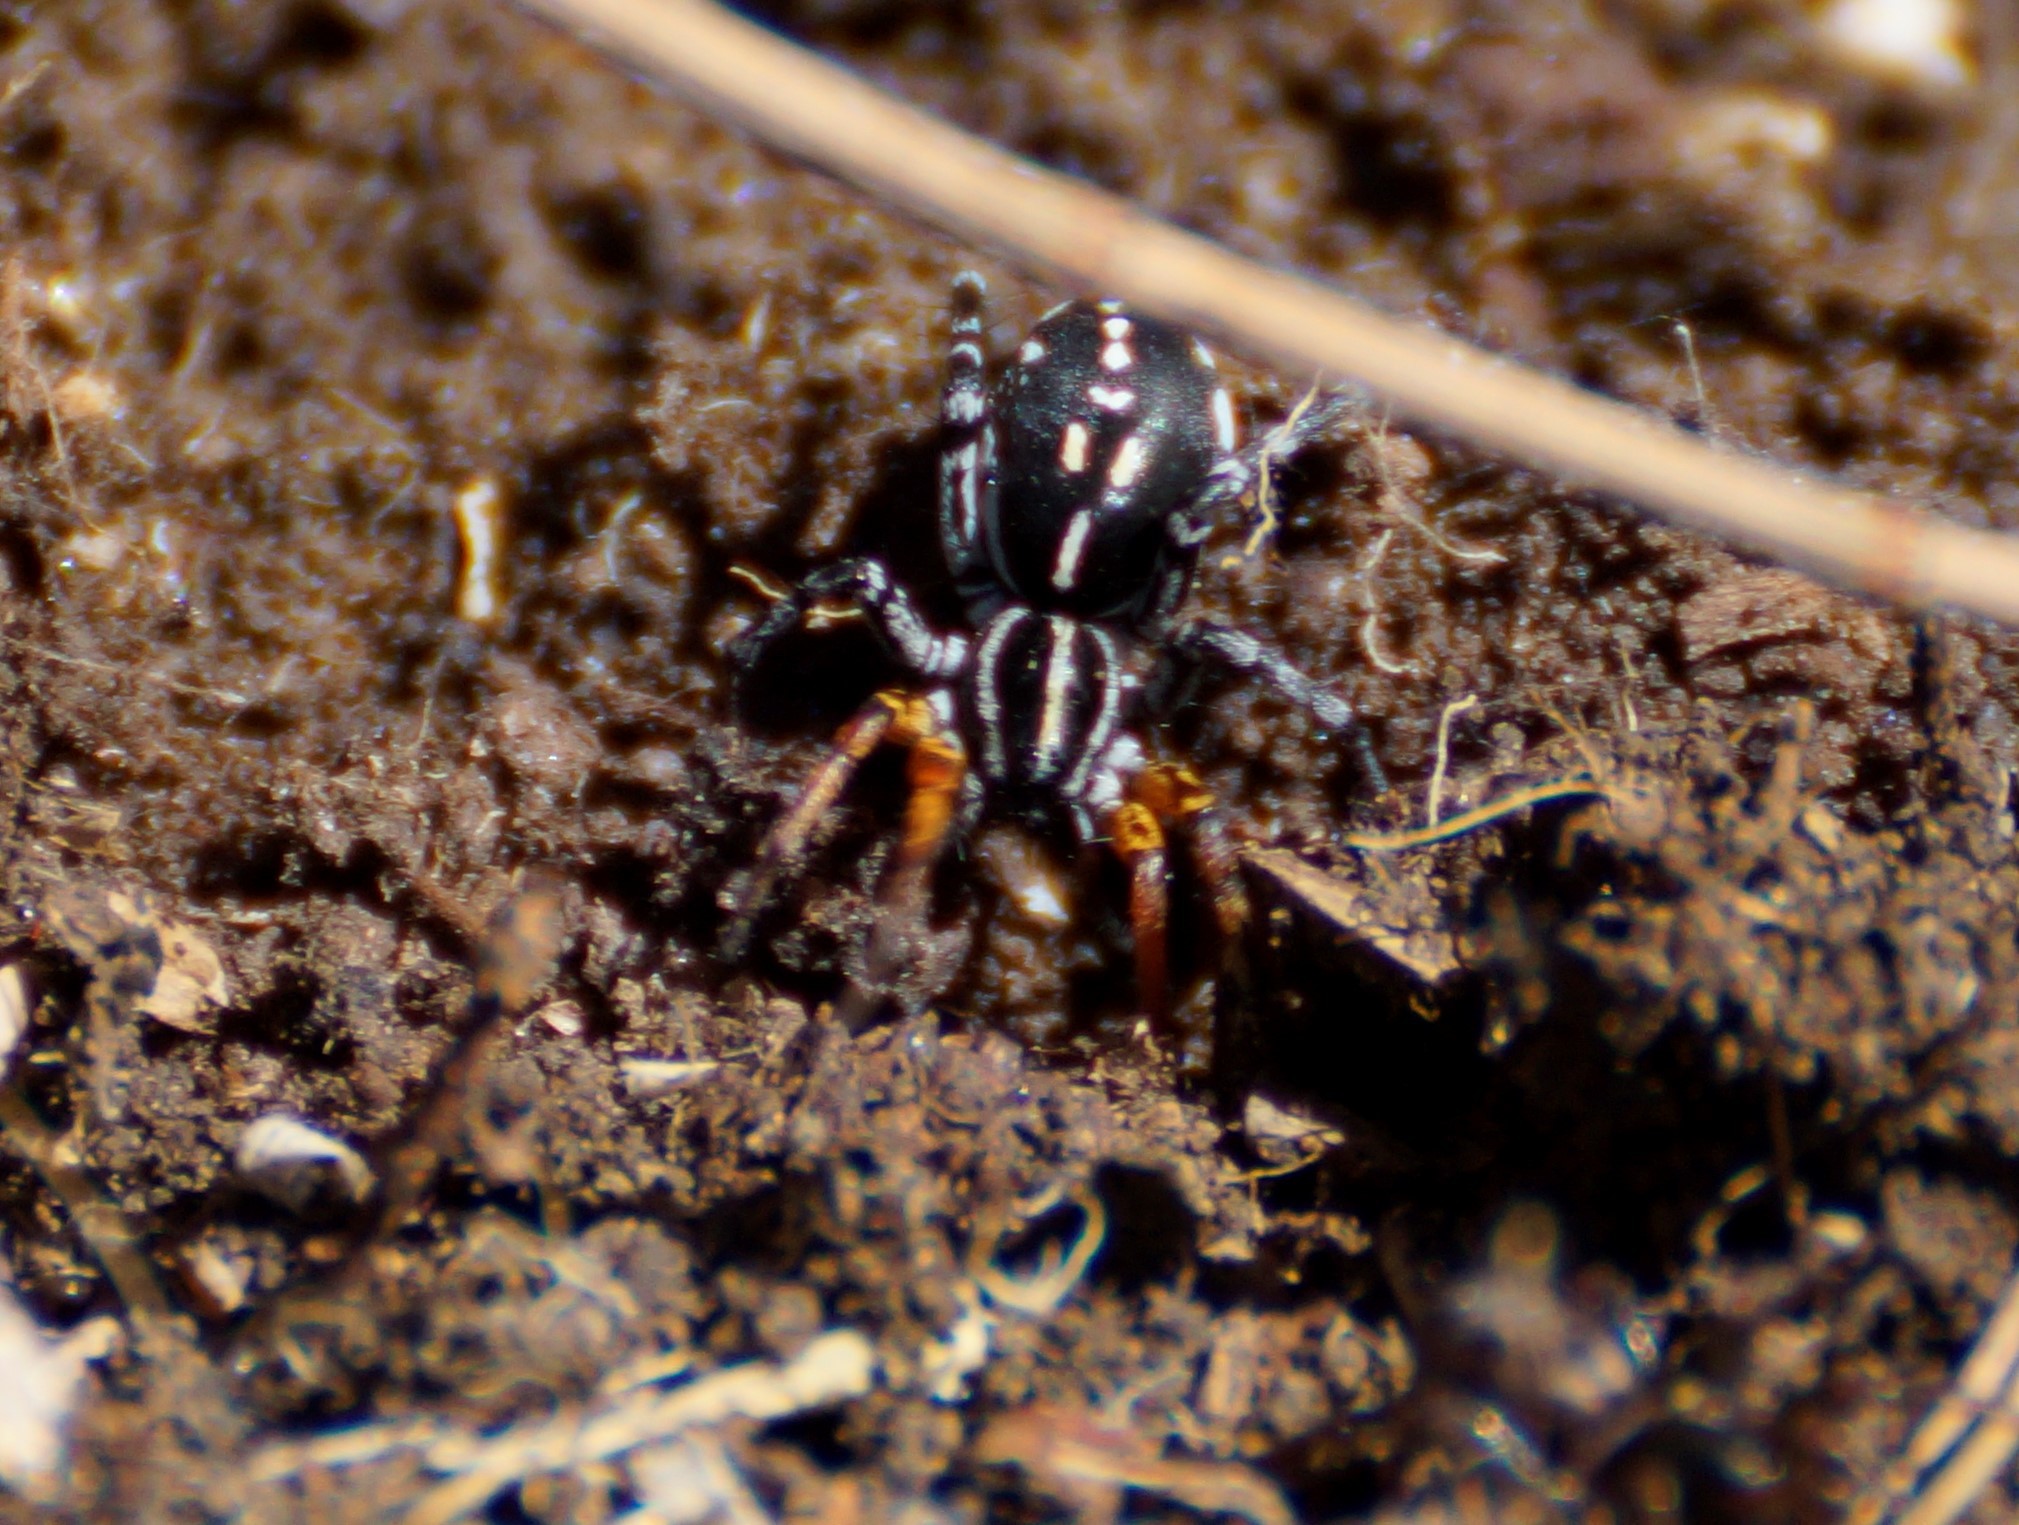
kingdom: Animalia
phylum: Arthropoda
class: Arachnida
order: Araneae
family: Corinnidae
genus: Nyssus
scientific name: Nyssus coloripes
